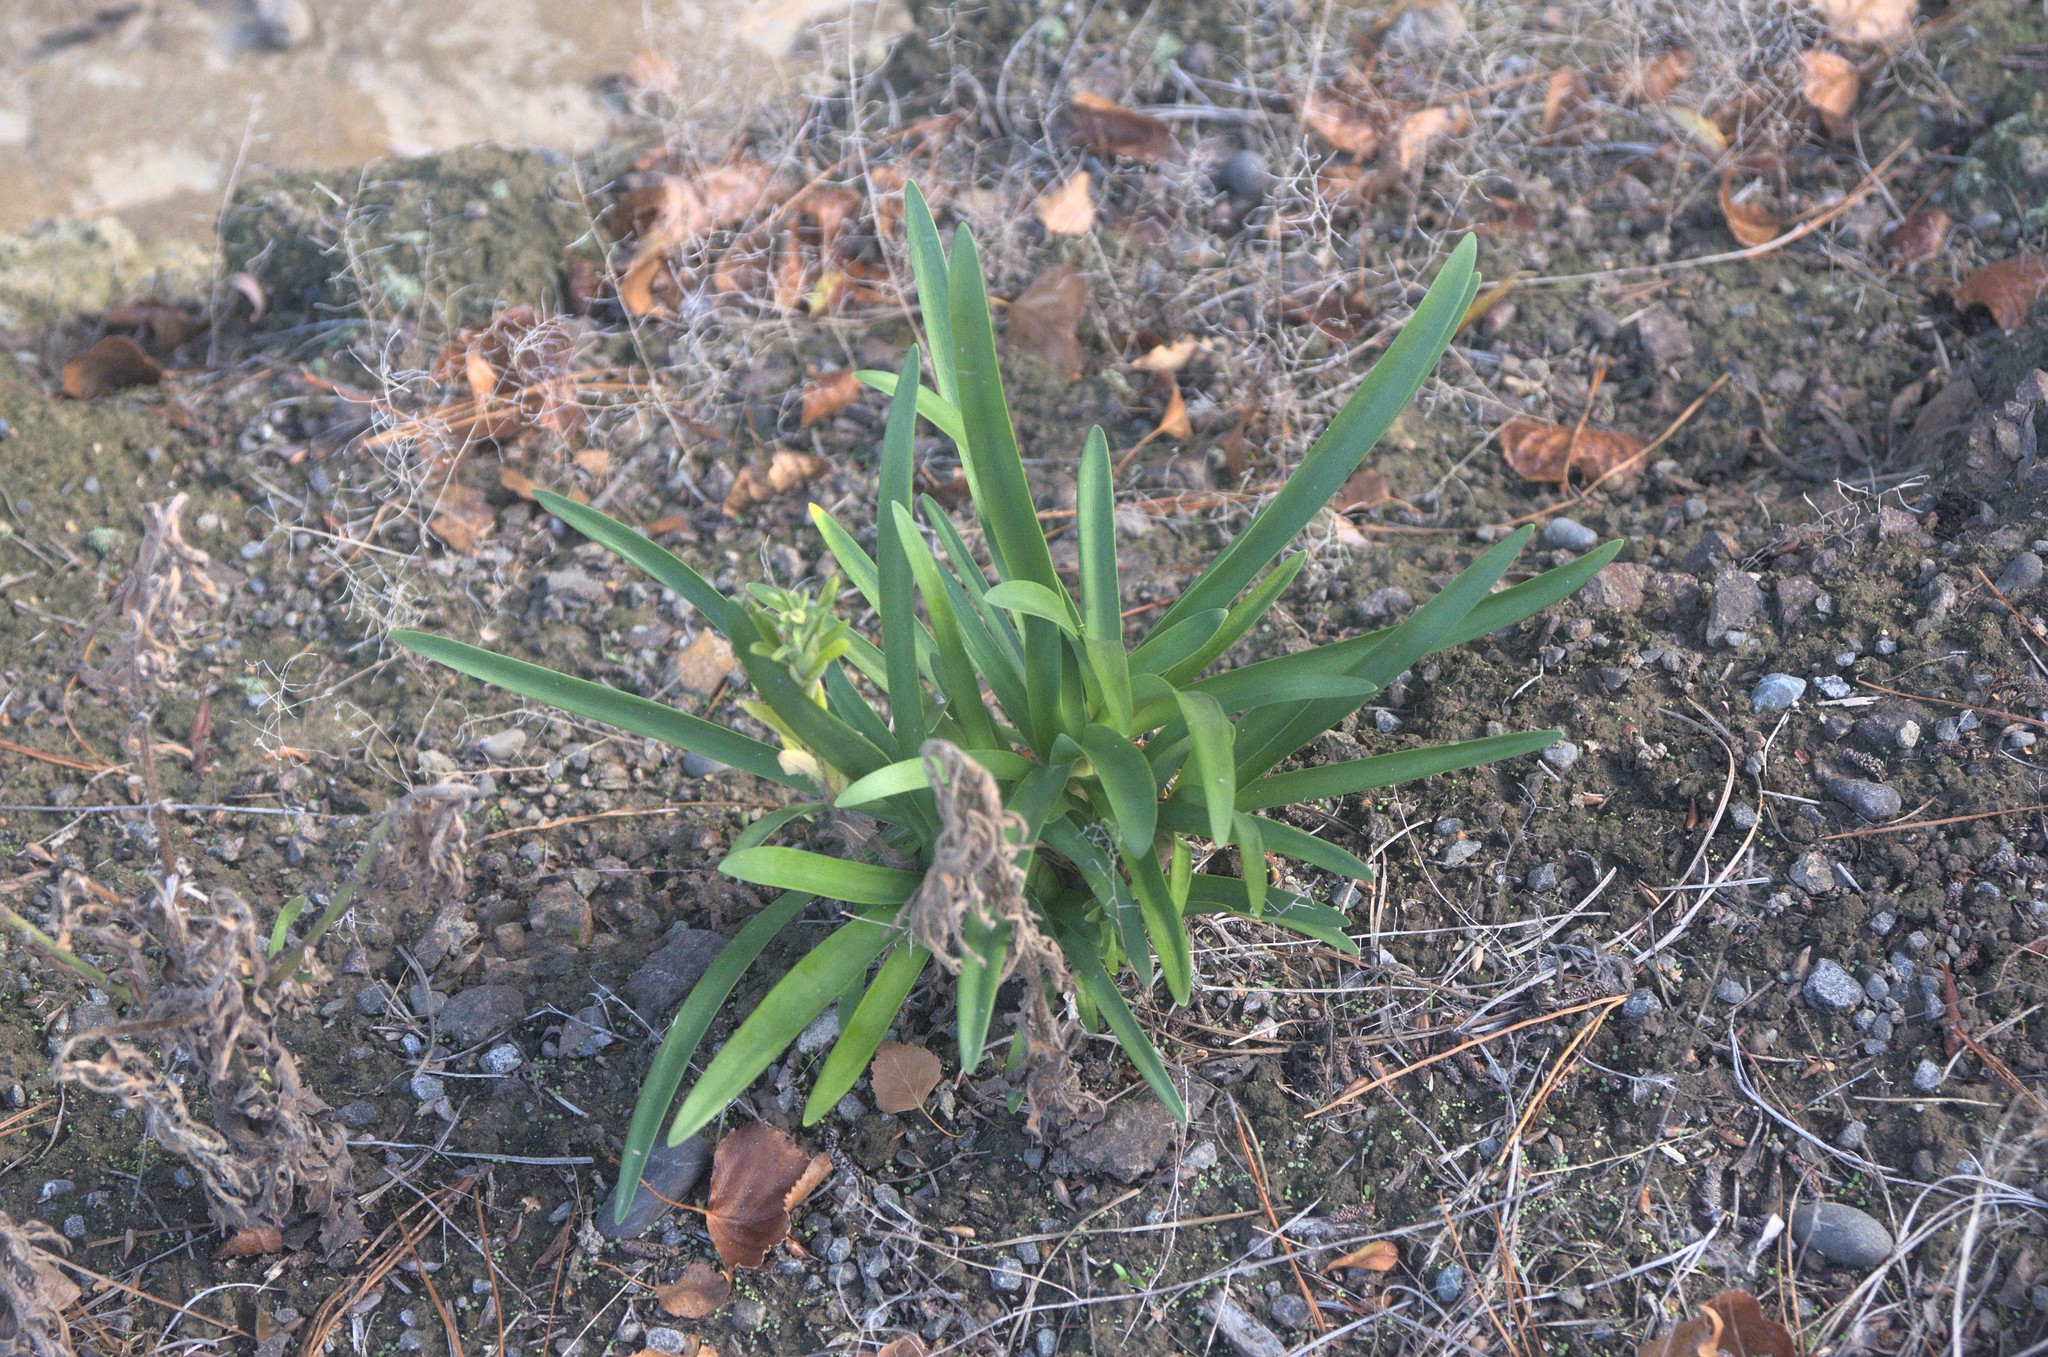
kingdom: Plantae
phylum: Tracheophyta
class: Liliopsida
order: Asparagales
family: Amaryllidaceae
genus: Agapanthus
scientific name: Agapanthus praecox
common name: African-lily
